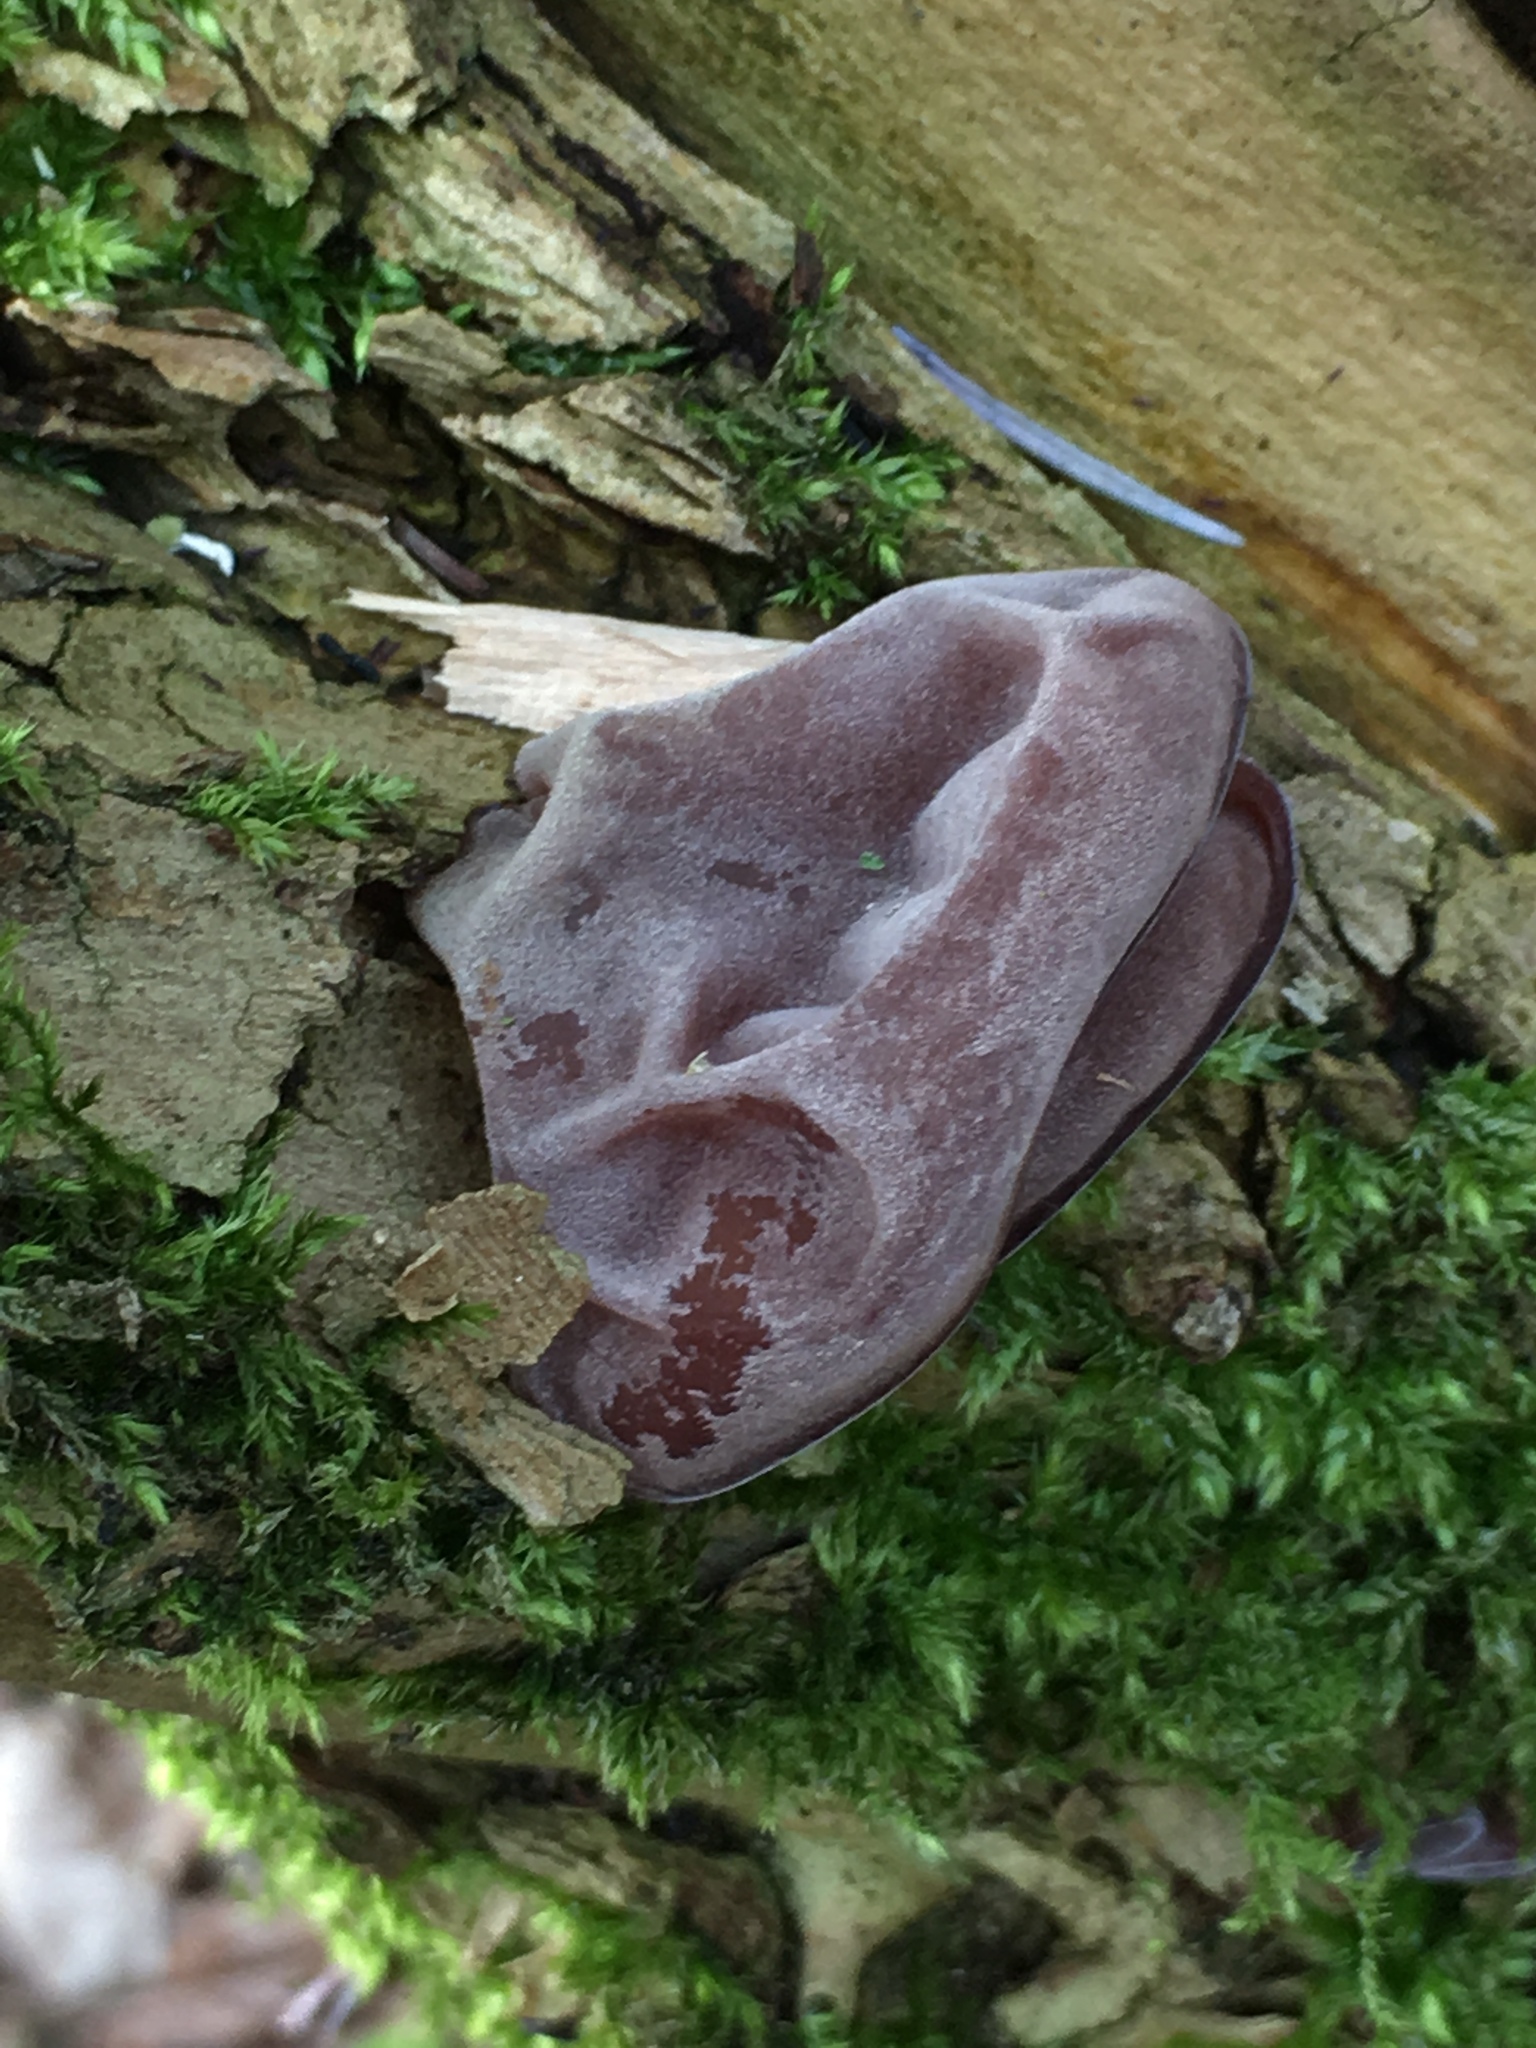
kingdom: Fungi
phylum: Basidiomycota
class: Agaricomycetes
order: Auriculariales
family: Auriculariaceae
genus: Auricularia
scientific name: Auricularia auricula-judae
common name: Jelly ear
